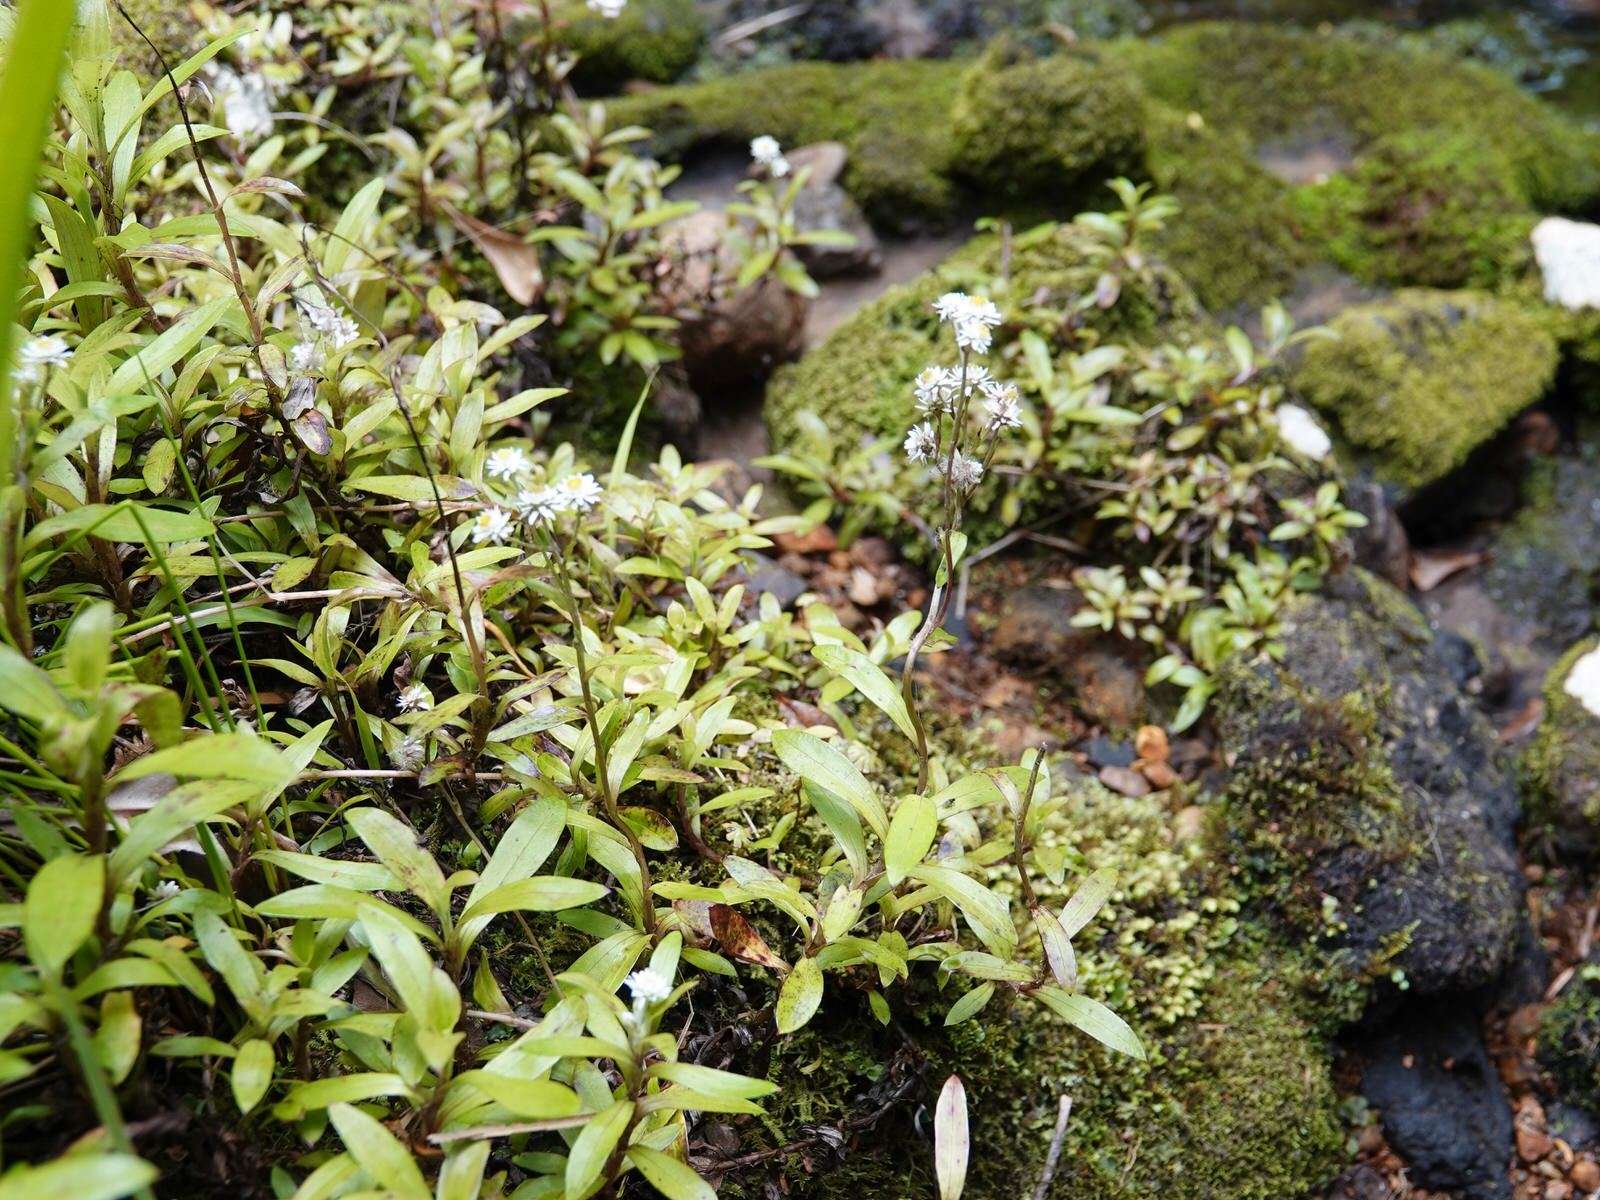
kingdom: Plantae
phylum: Tracheophyta
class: Magnoliopsida
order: Asterales
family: Asteraceae
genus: Anaphalioides
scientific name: Anaphalioides trinervis
